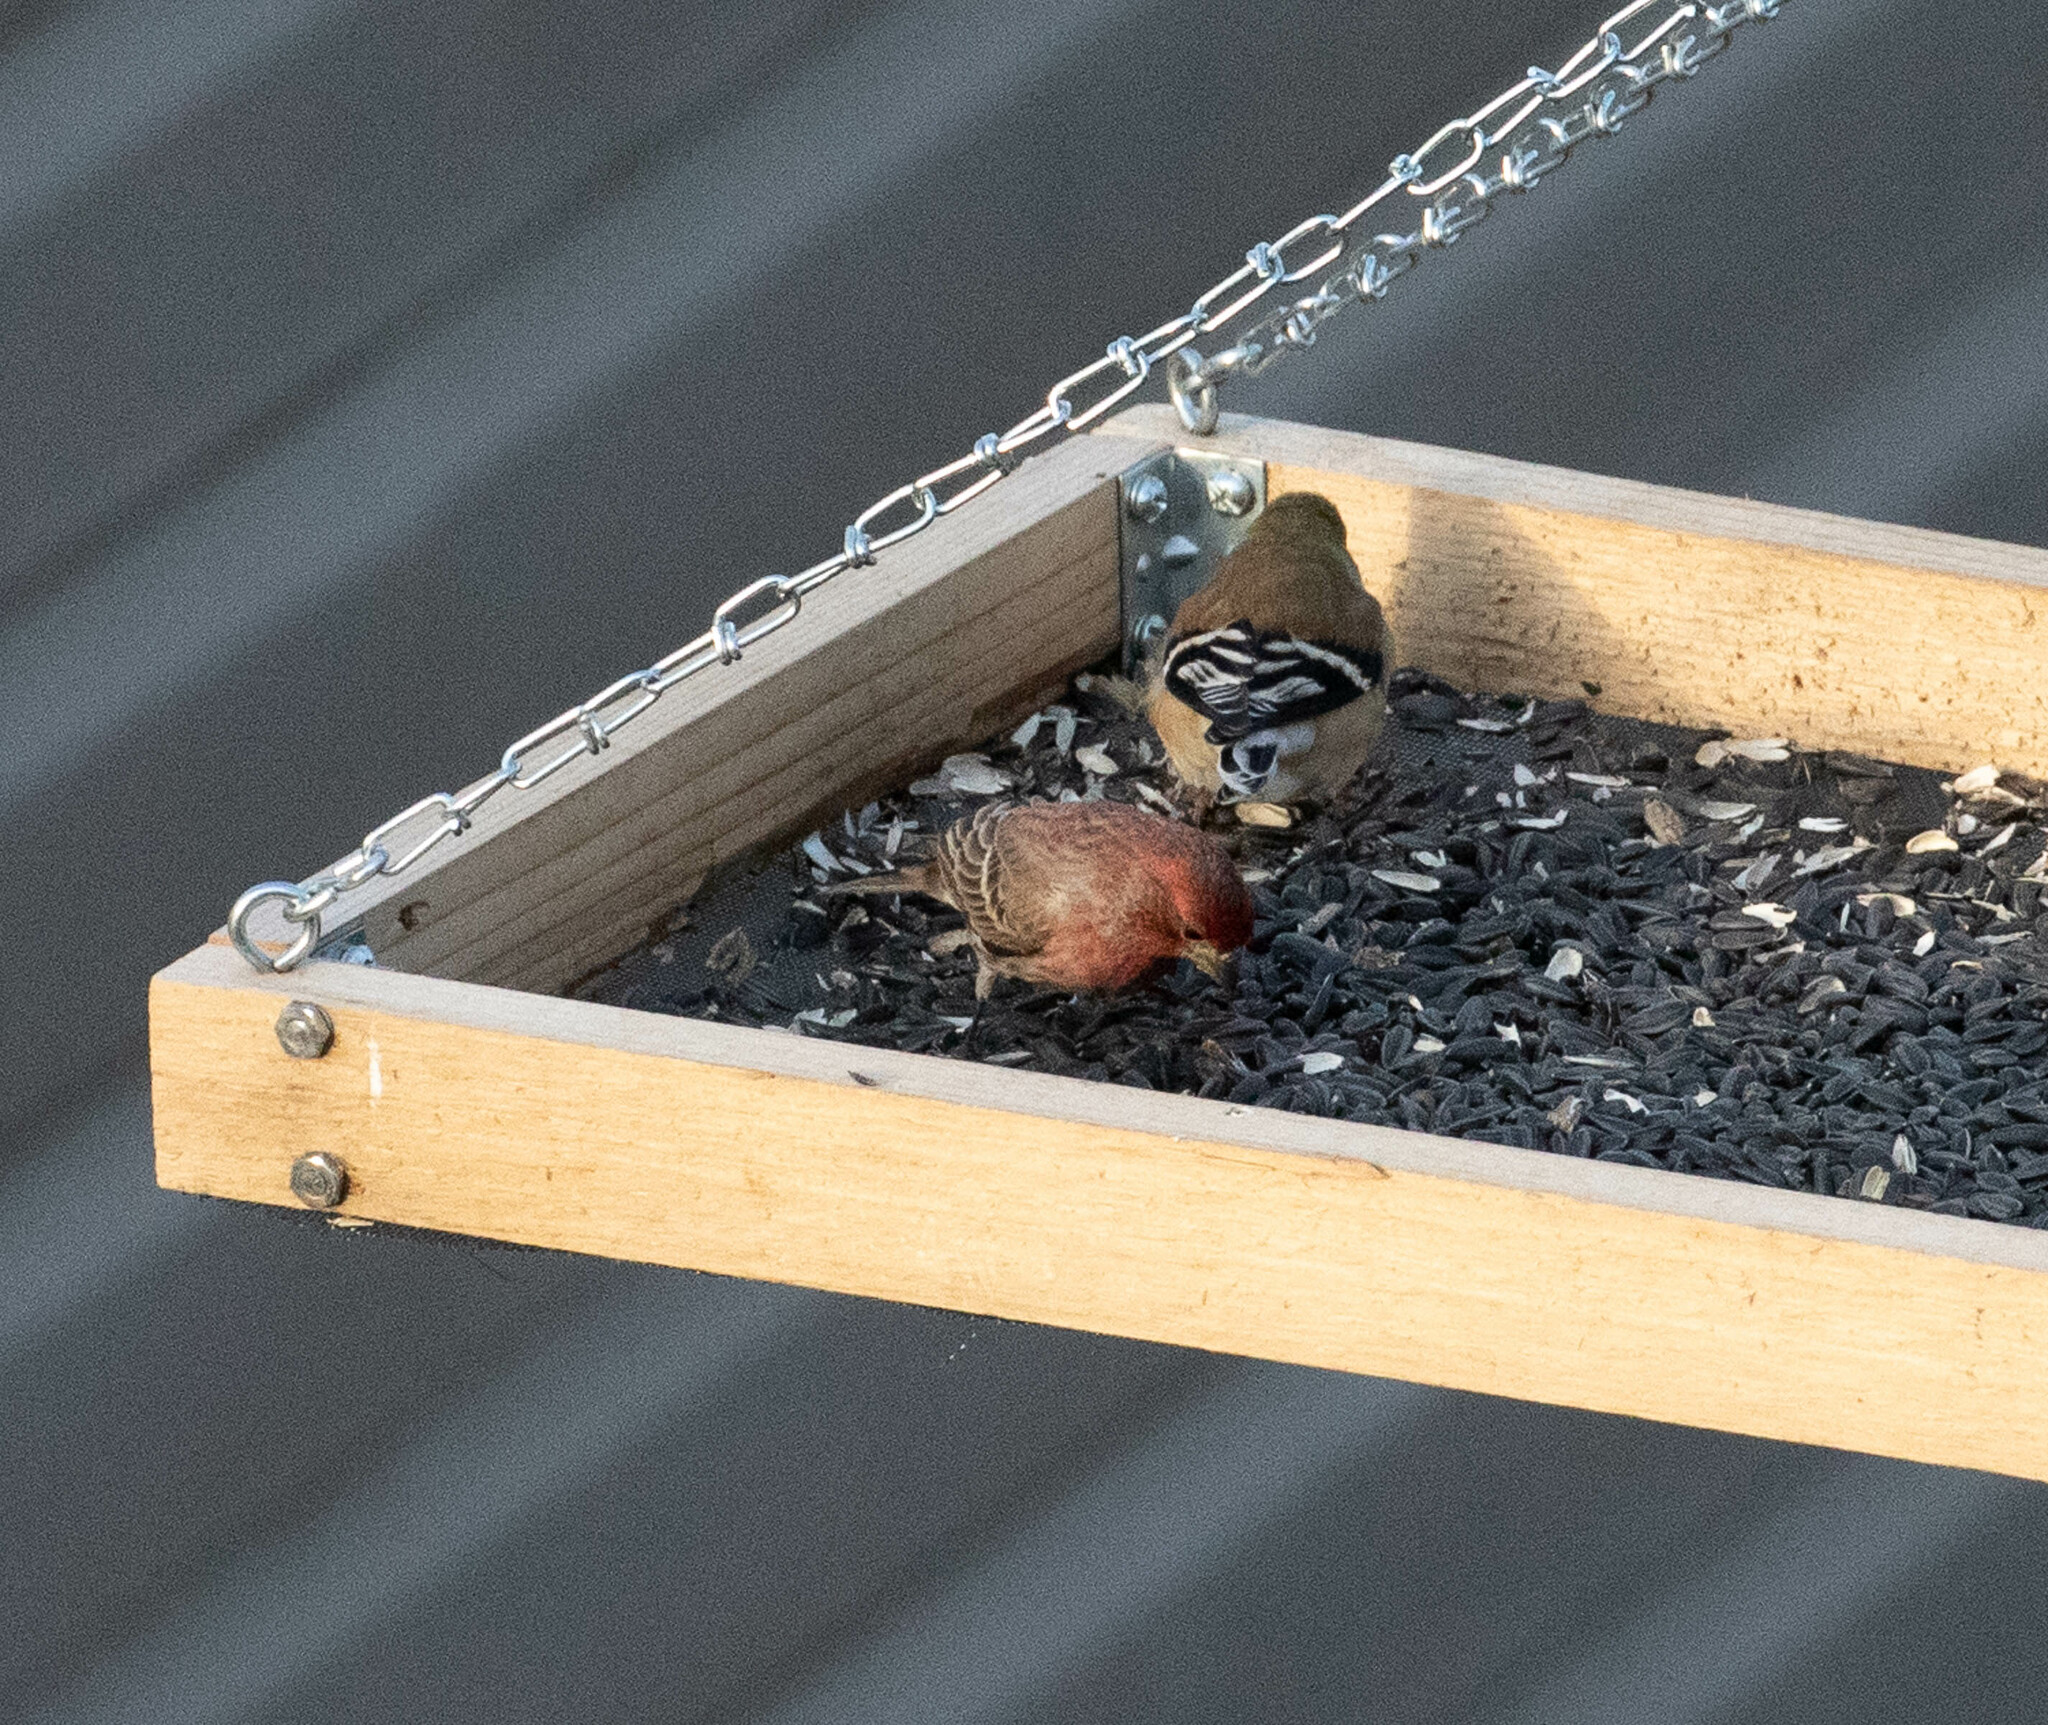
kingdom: Animalia
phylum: Chordata
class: Aves
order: Passeriformes
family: Fringillidae
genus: Spinus
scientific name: Spinus tristis
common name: American goldfinch
